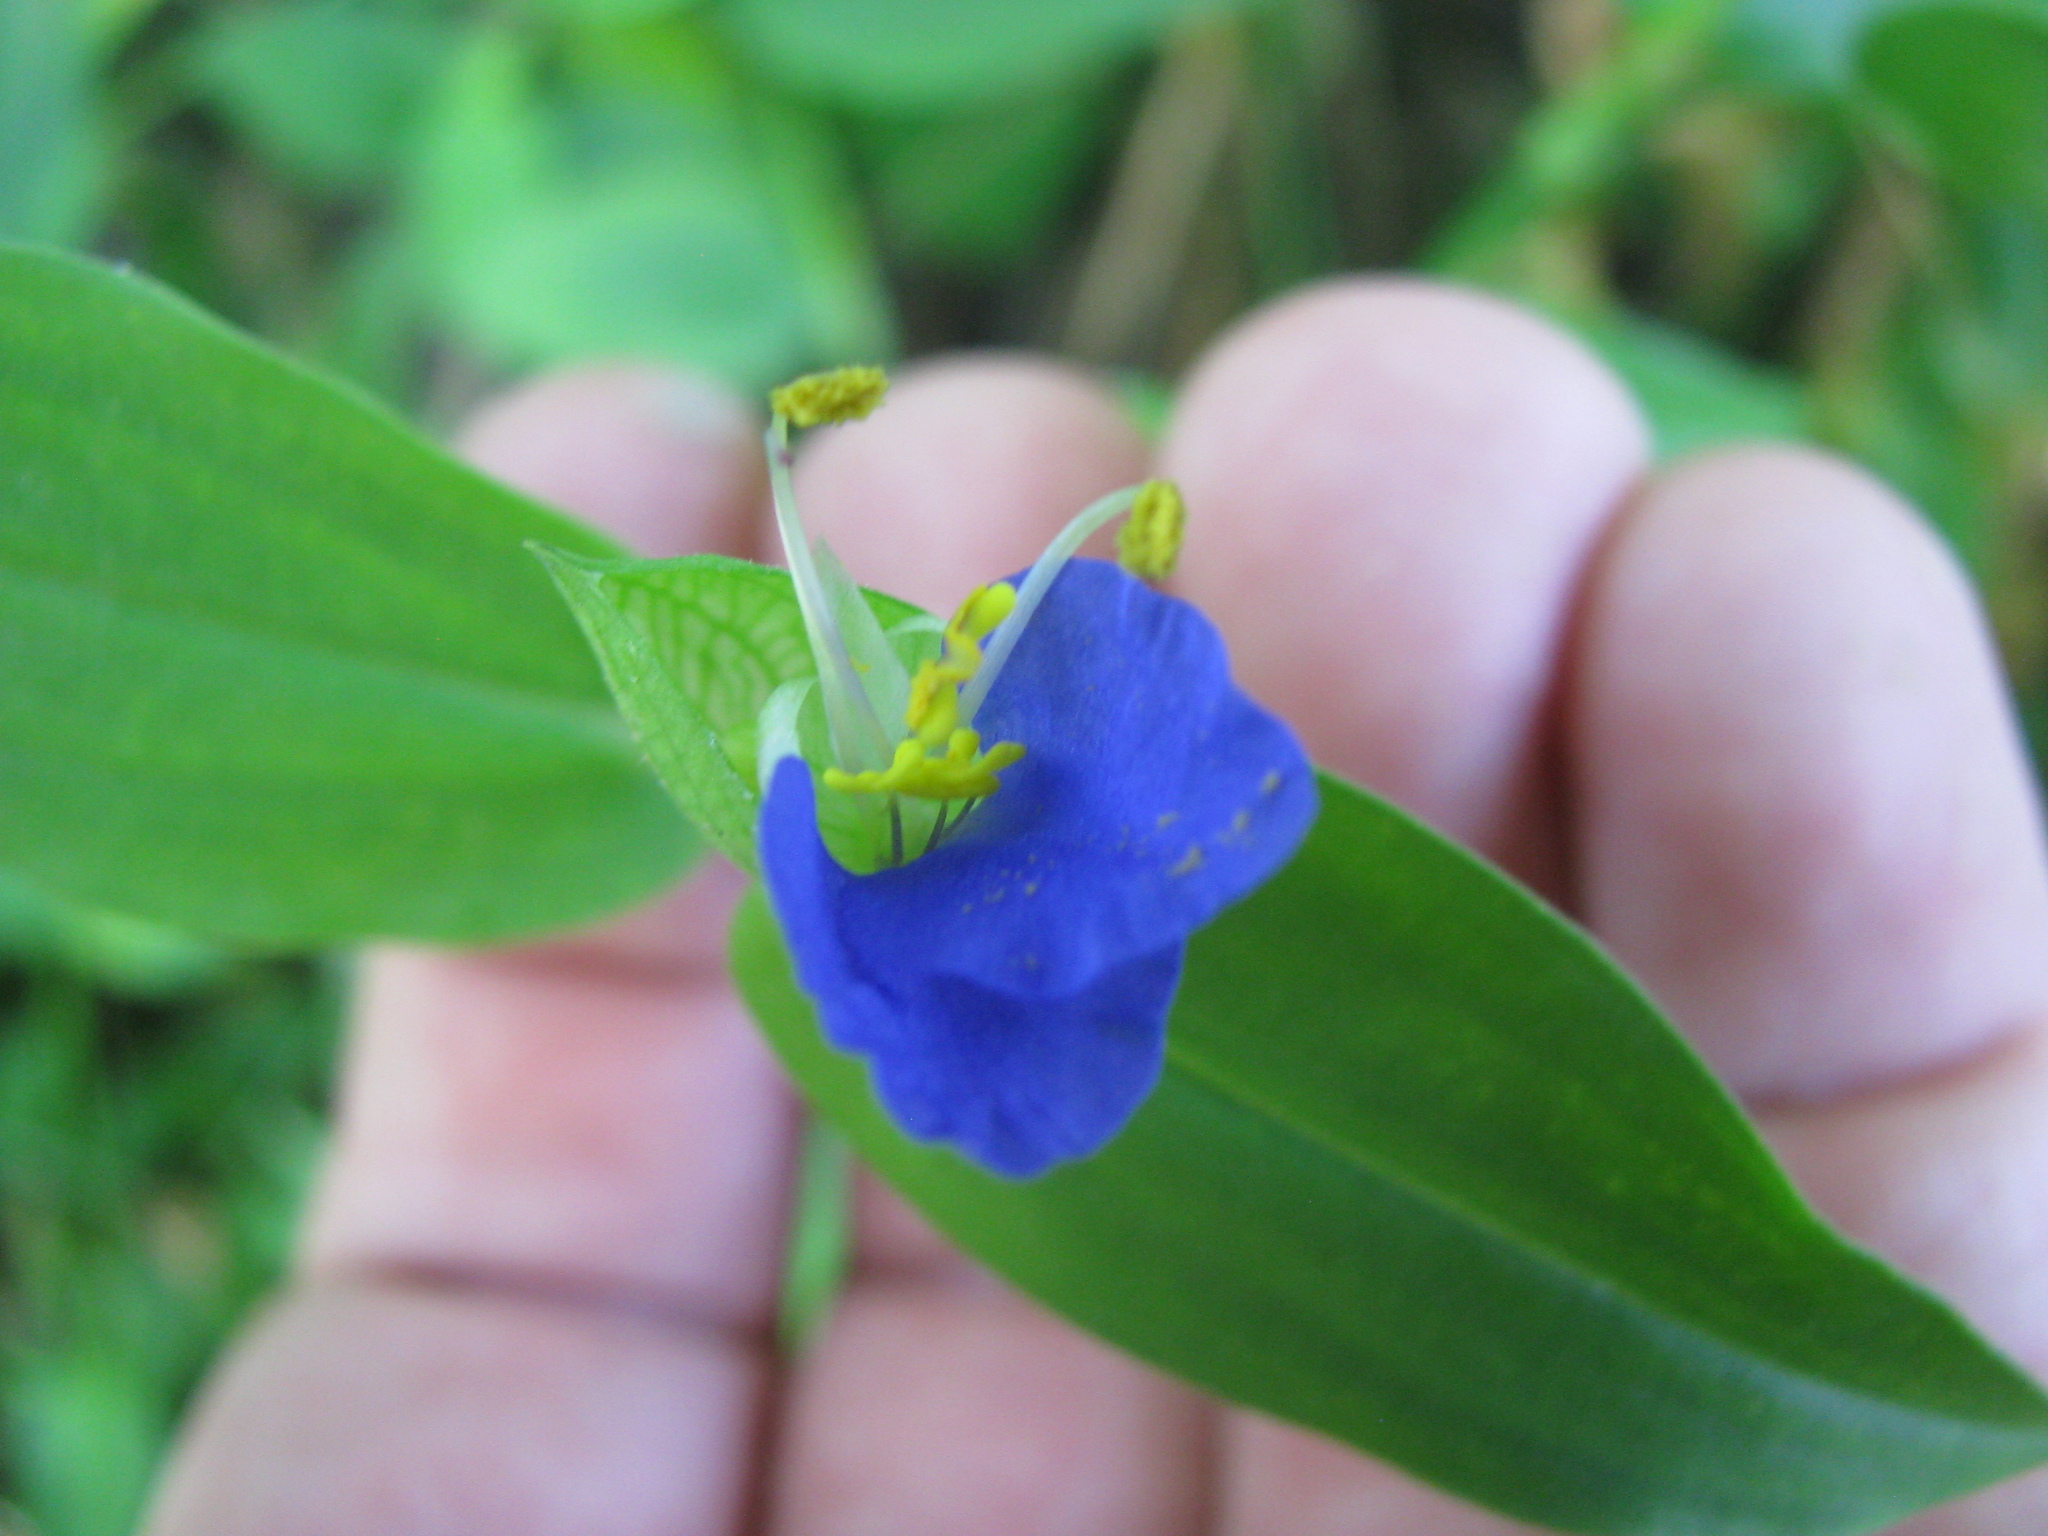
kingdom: Plantae
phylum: Tracheophyta
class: Liliopsida
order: Commelinales
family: Commelinaceae
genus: Commelina
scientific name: Commelina communis
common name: Asiatic dayflower
